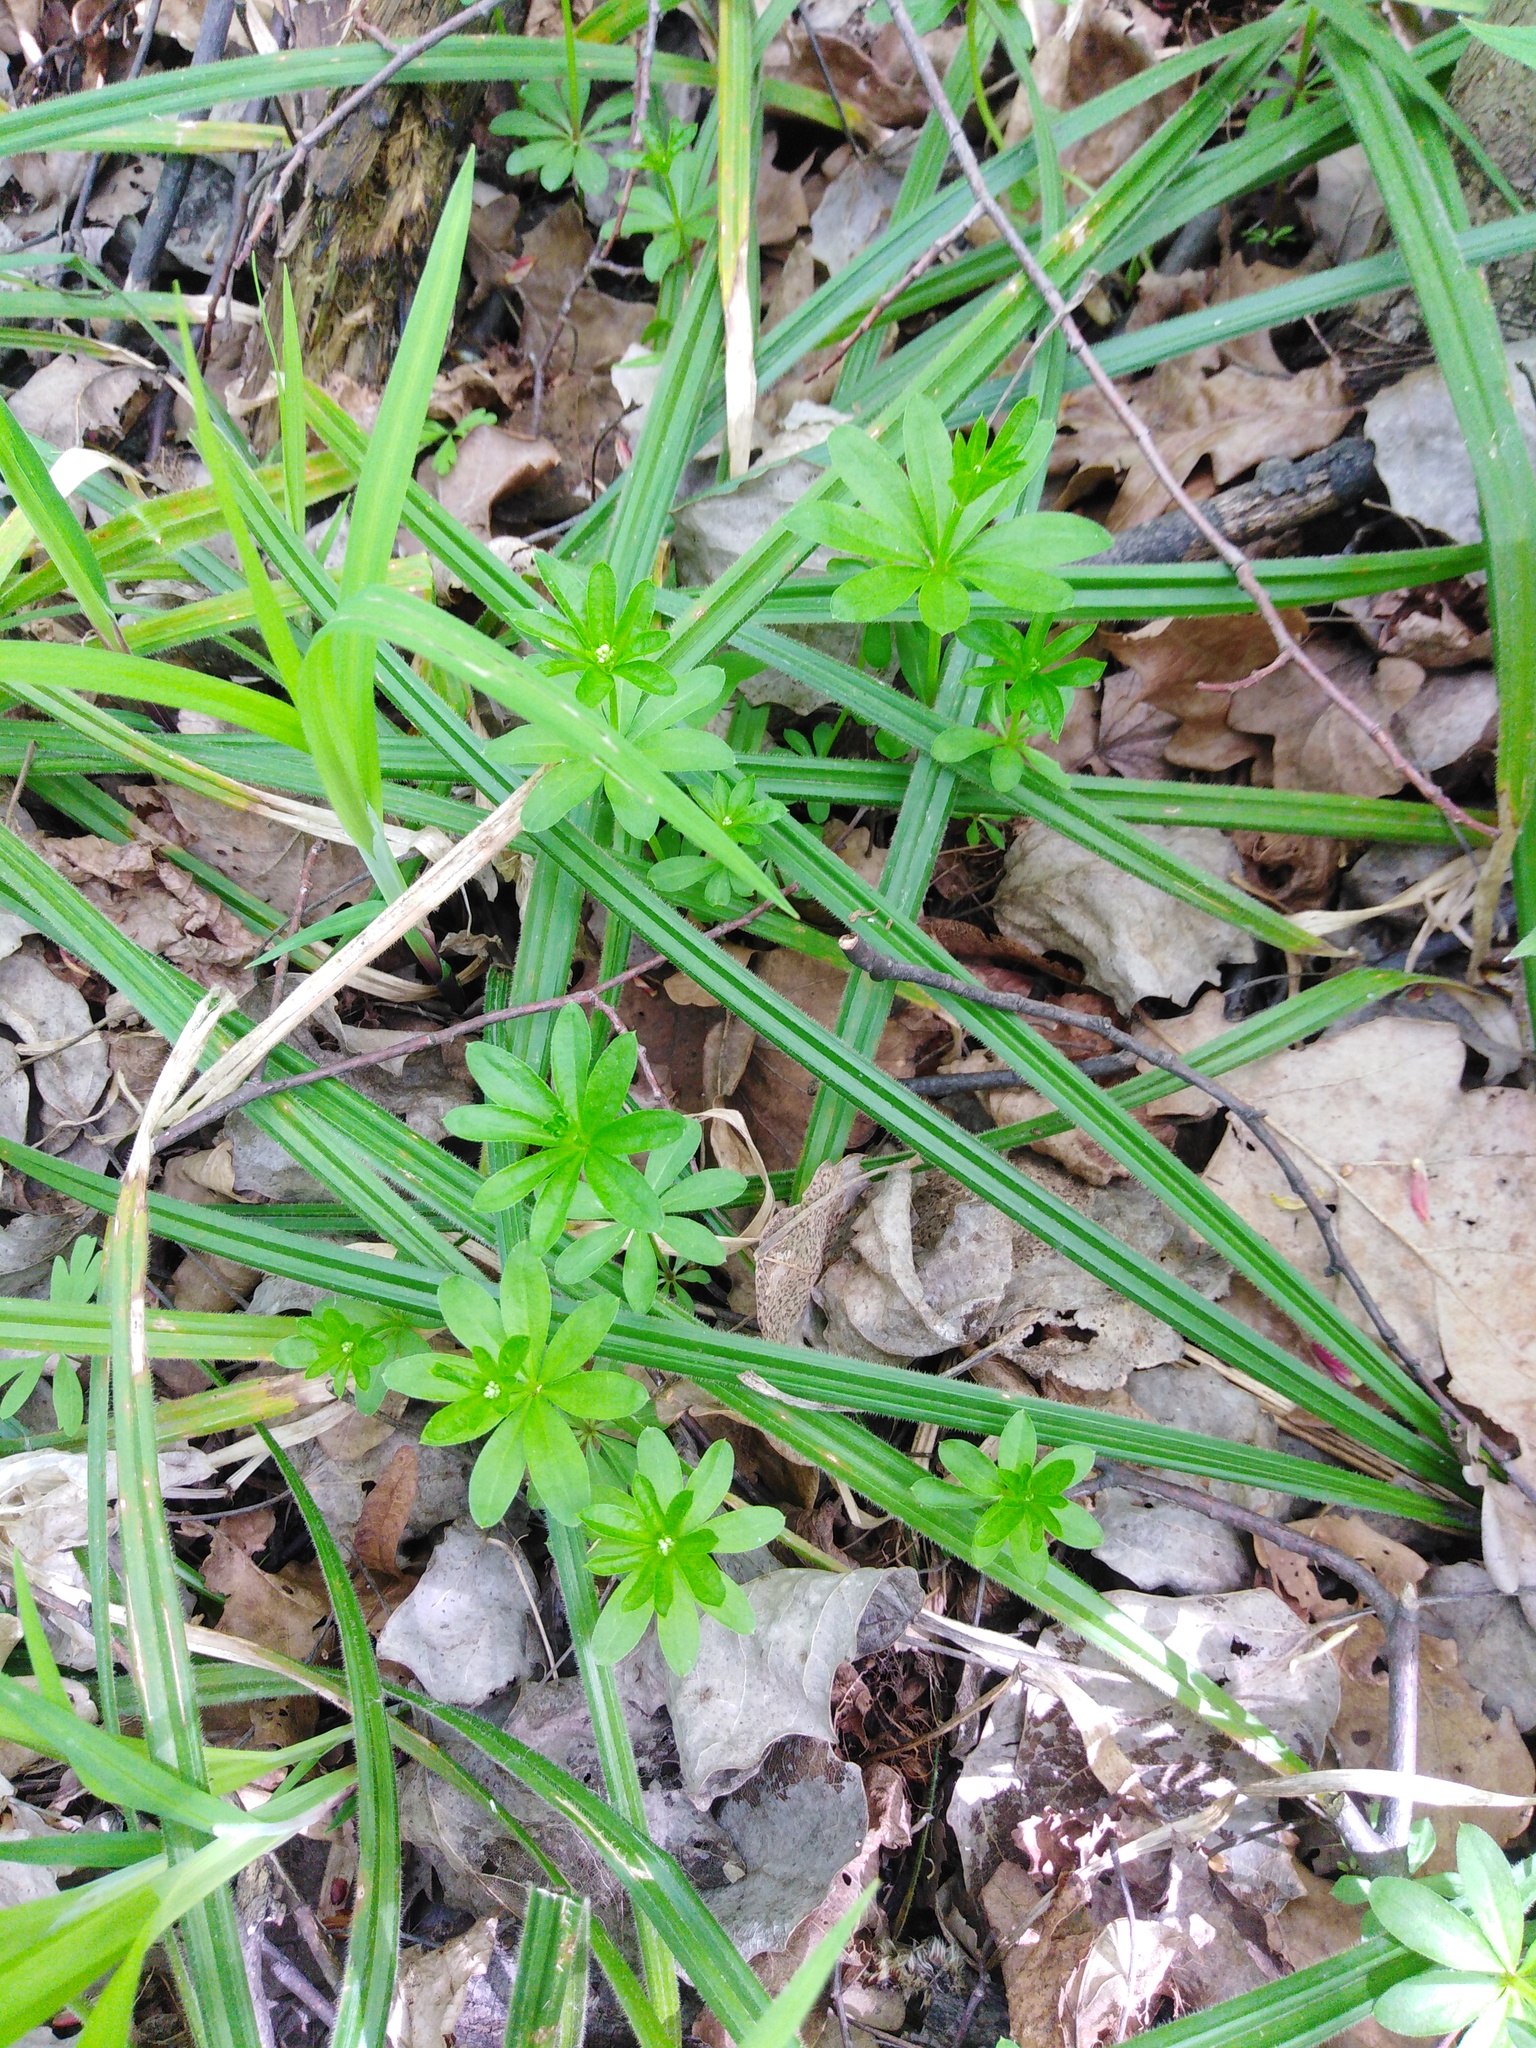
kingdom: Plantae
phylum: Tracheophyta
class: Magnoliopsida
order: Gentianales
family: Rubiaceae
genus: Galium
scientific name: Galium odoratum
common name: Sweet woodruff
